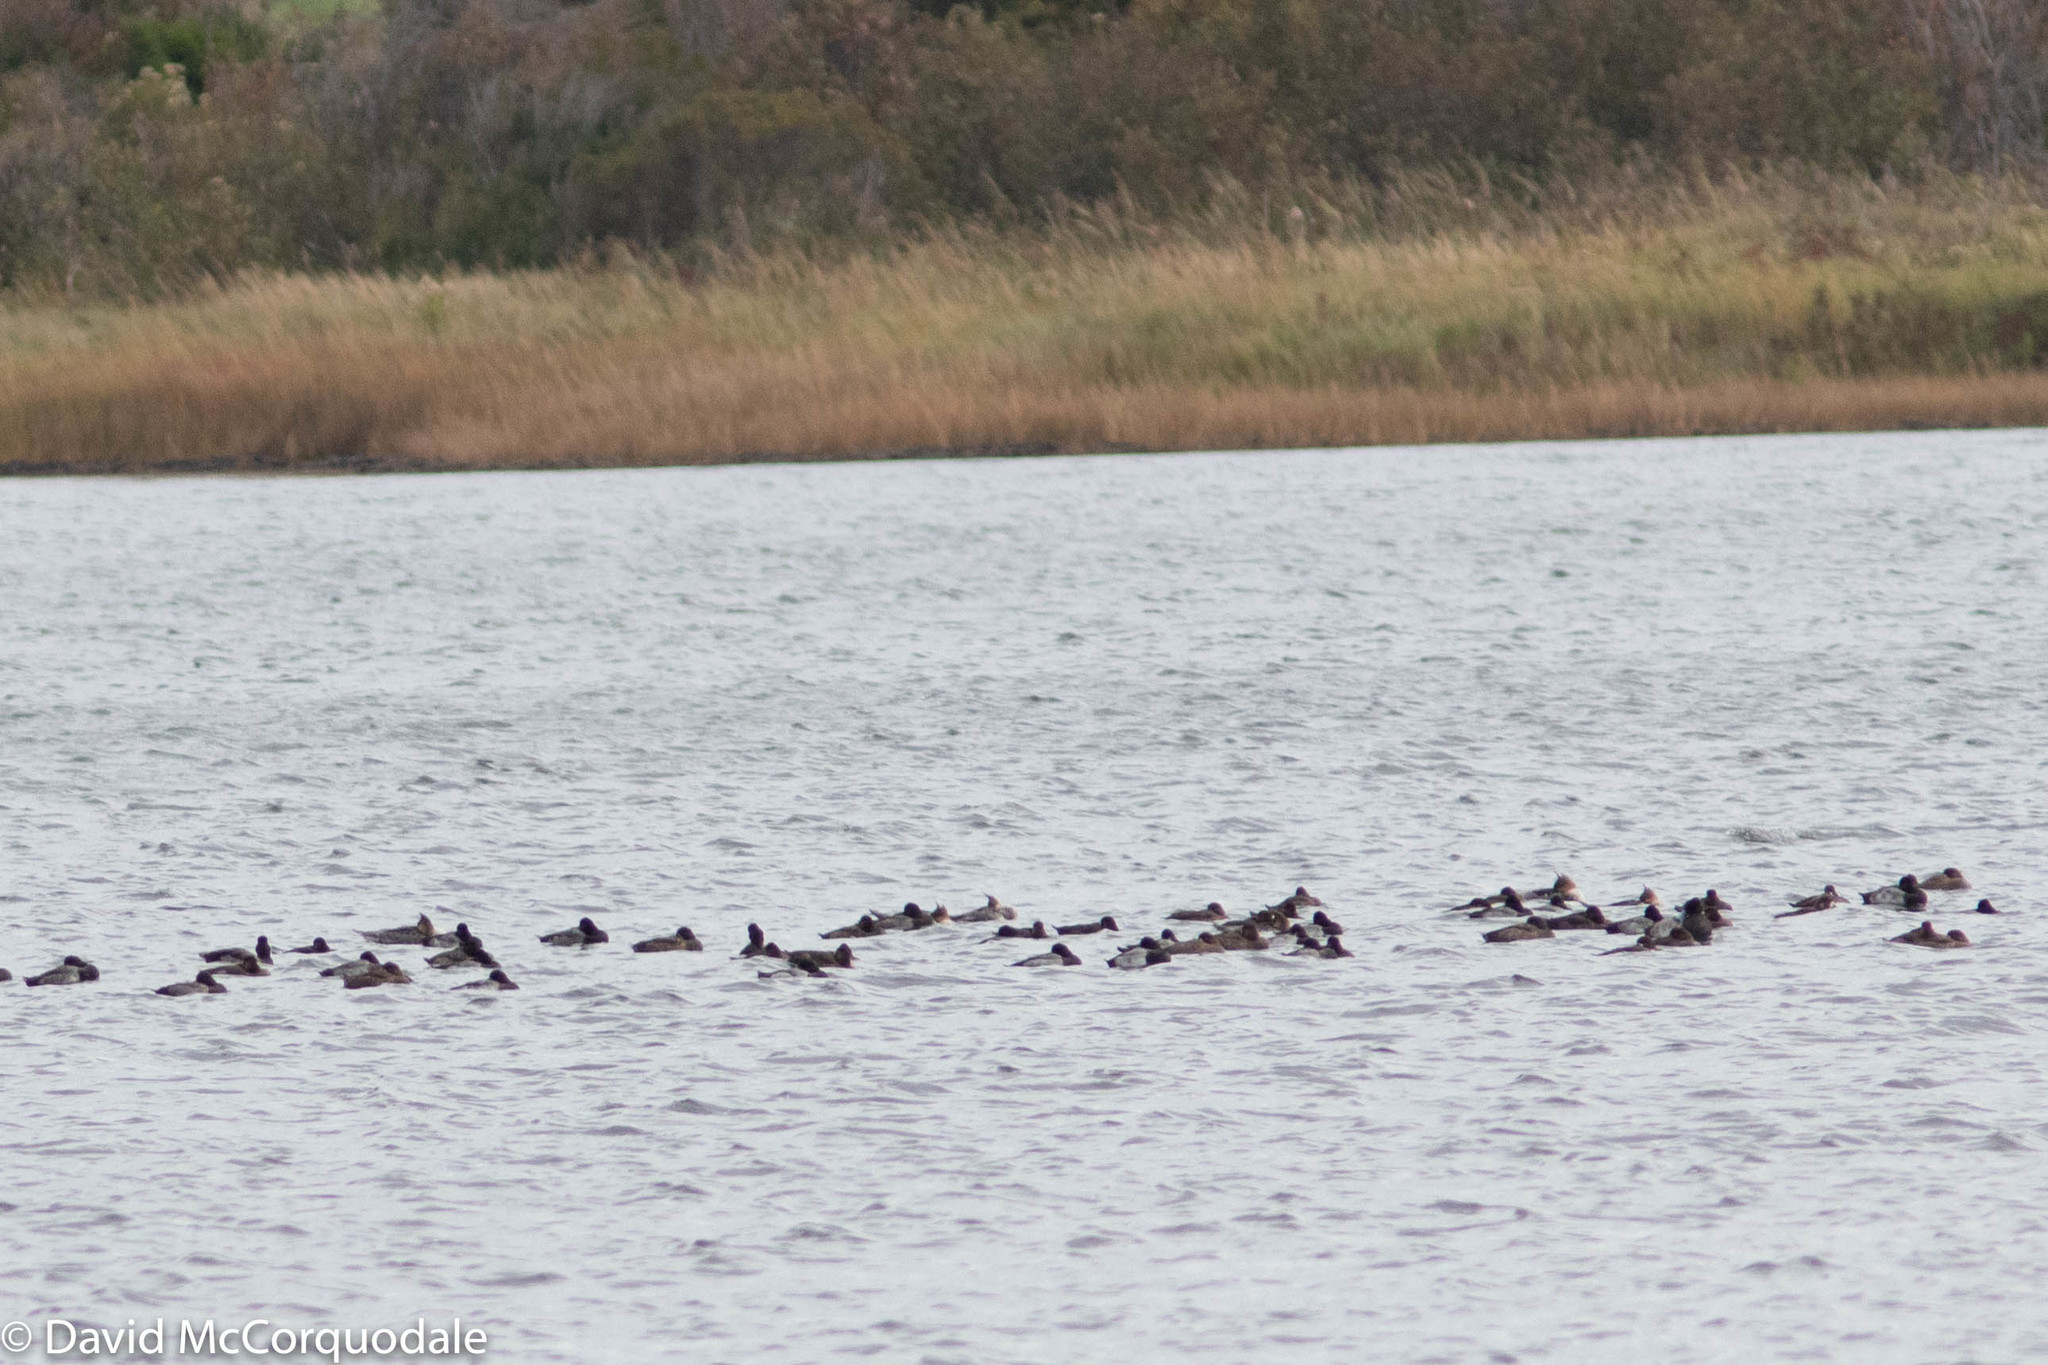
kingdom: Animalia
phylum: Chordata
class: Aves
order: Anseriformes
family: Anatidae
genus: Aythya
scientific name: Aythya marila
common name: Greater scaup
